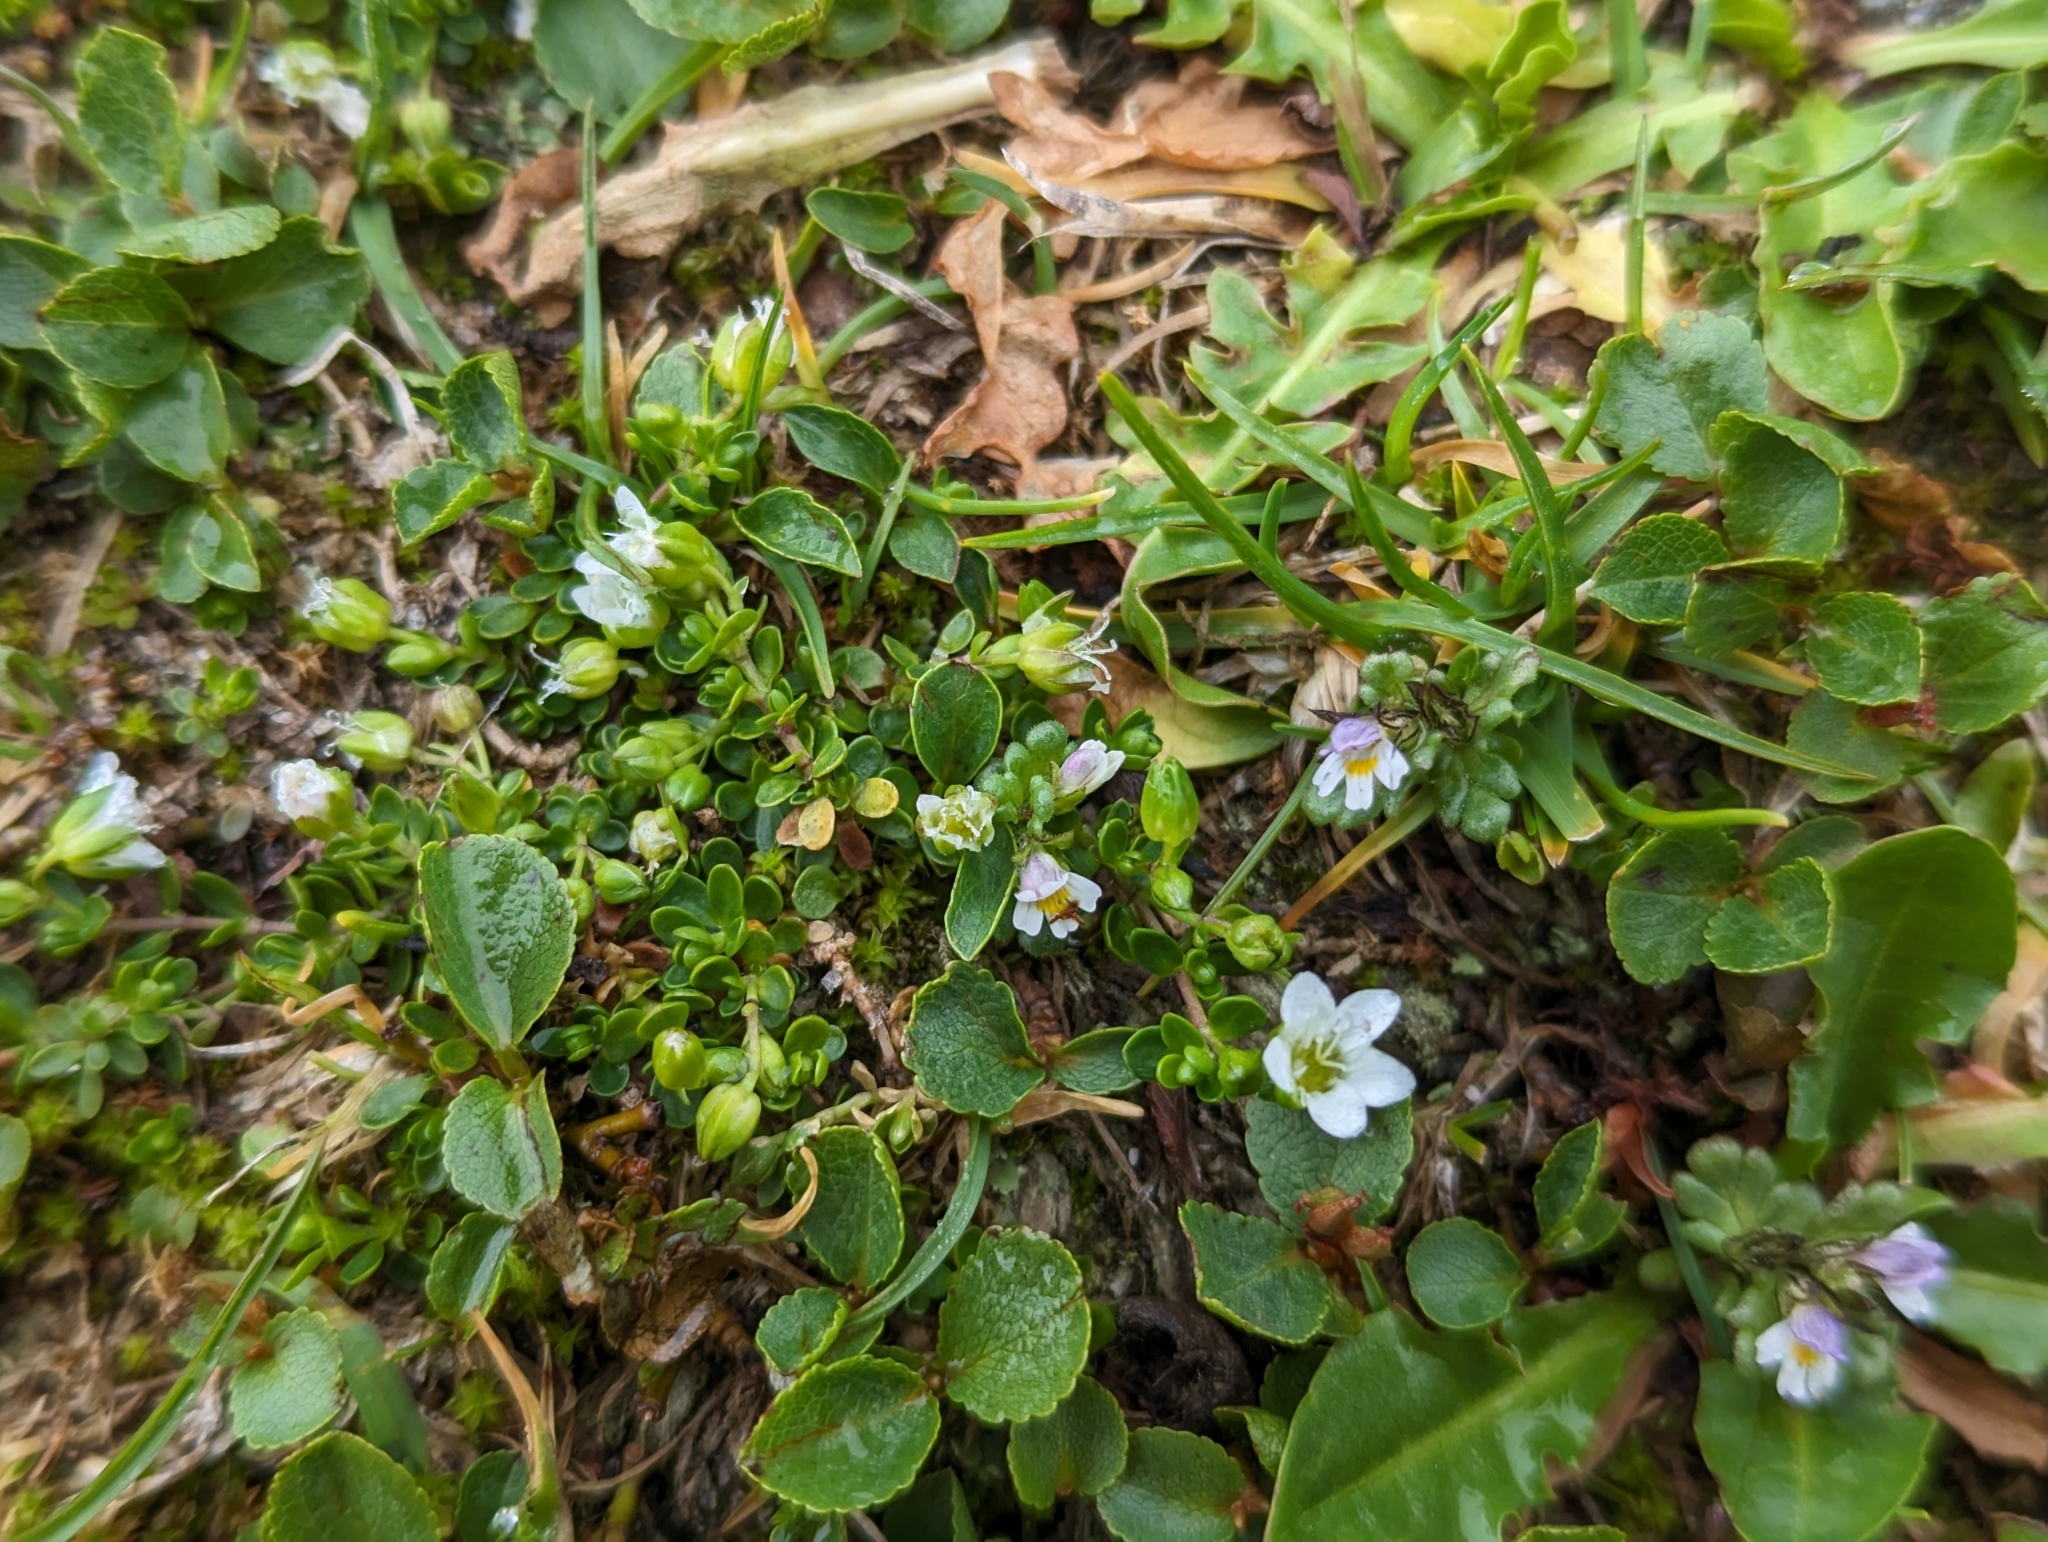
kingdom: Plantae
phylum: Tracheophyta
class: Magnoliopsida
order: Caryophyllales
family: Caryophyllaceae
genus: Arenaria
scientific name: Arenaria biflora
